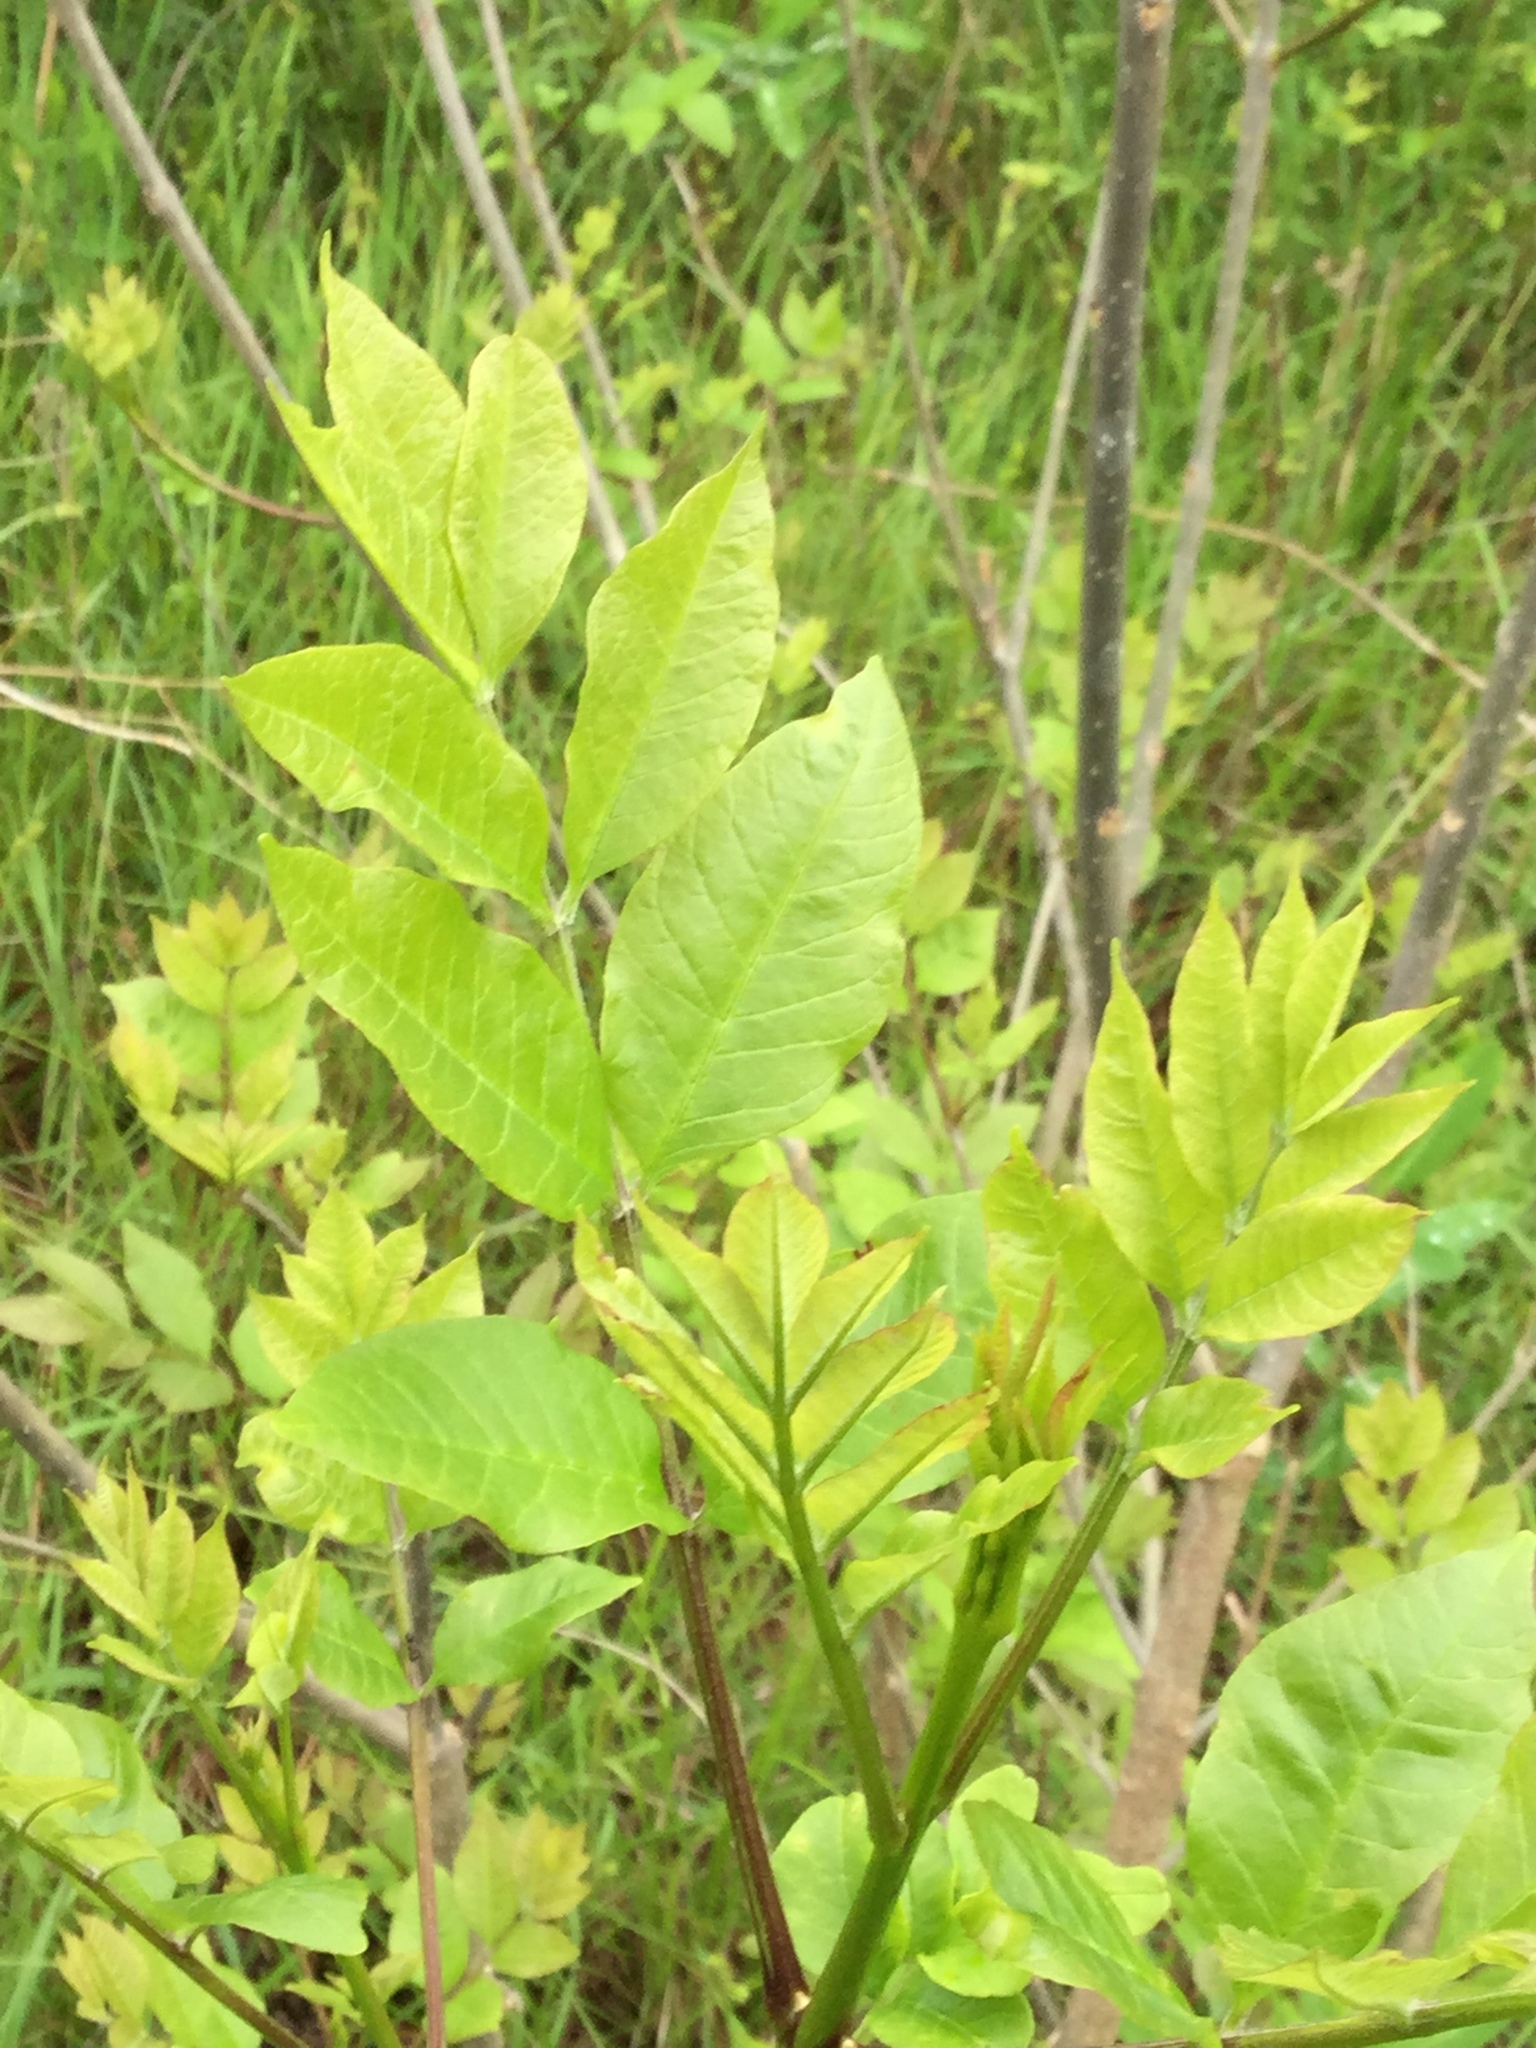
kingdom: Plantae
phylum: Tracheophyta
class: Magnoliopsida
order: Lamiales
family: Oleaceae
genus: Fraxinus
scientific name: Fraxinus pennsylvanica
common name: Green ash
